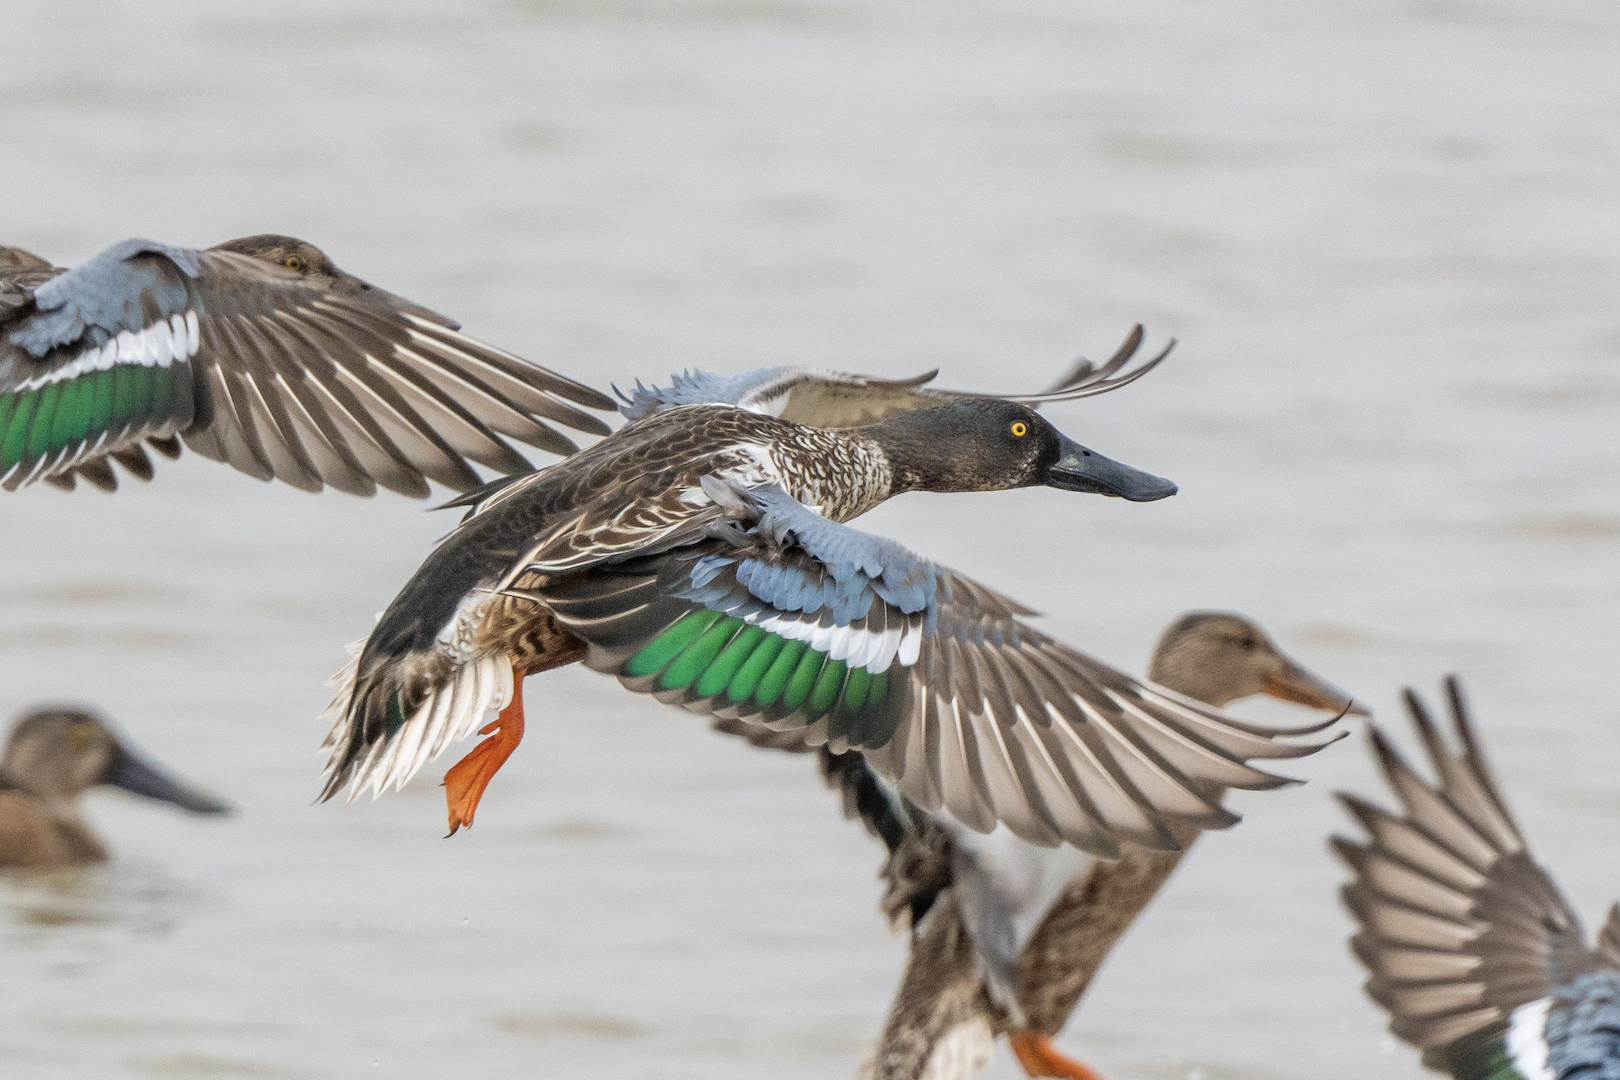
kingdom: Animalia
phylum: Chordata
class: Aves
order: Anseriformes
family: Anatidae
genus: Spatula
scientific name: Spatula clypeata
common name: Northern shoveler
